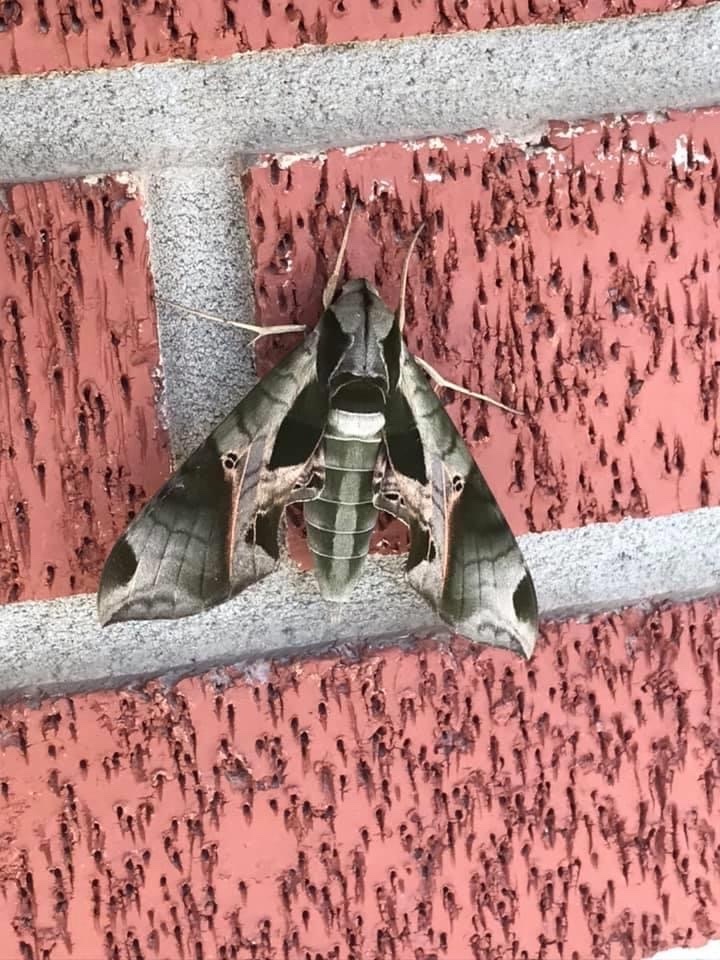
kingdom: Animalia
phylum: Arthropoda
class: Insecta
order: Lepidoptera
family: Sphingidae
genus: Eumorpha
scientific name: Eumorpha pandorus
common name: Pandora sphinx
